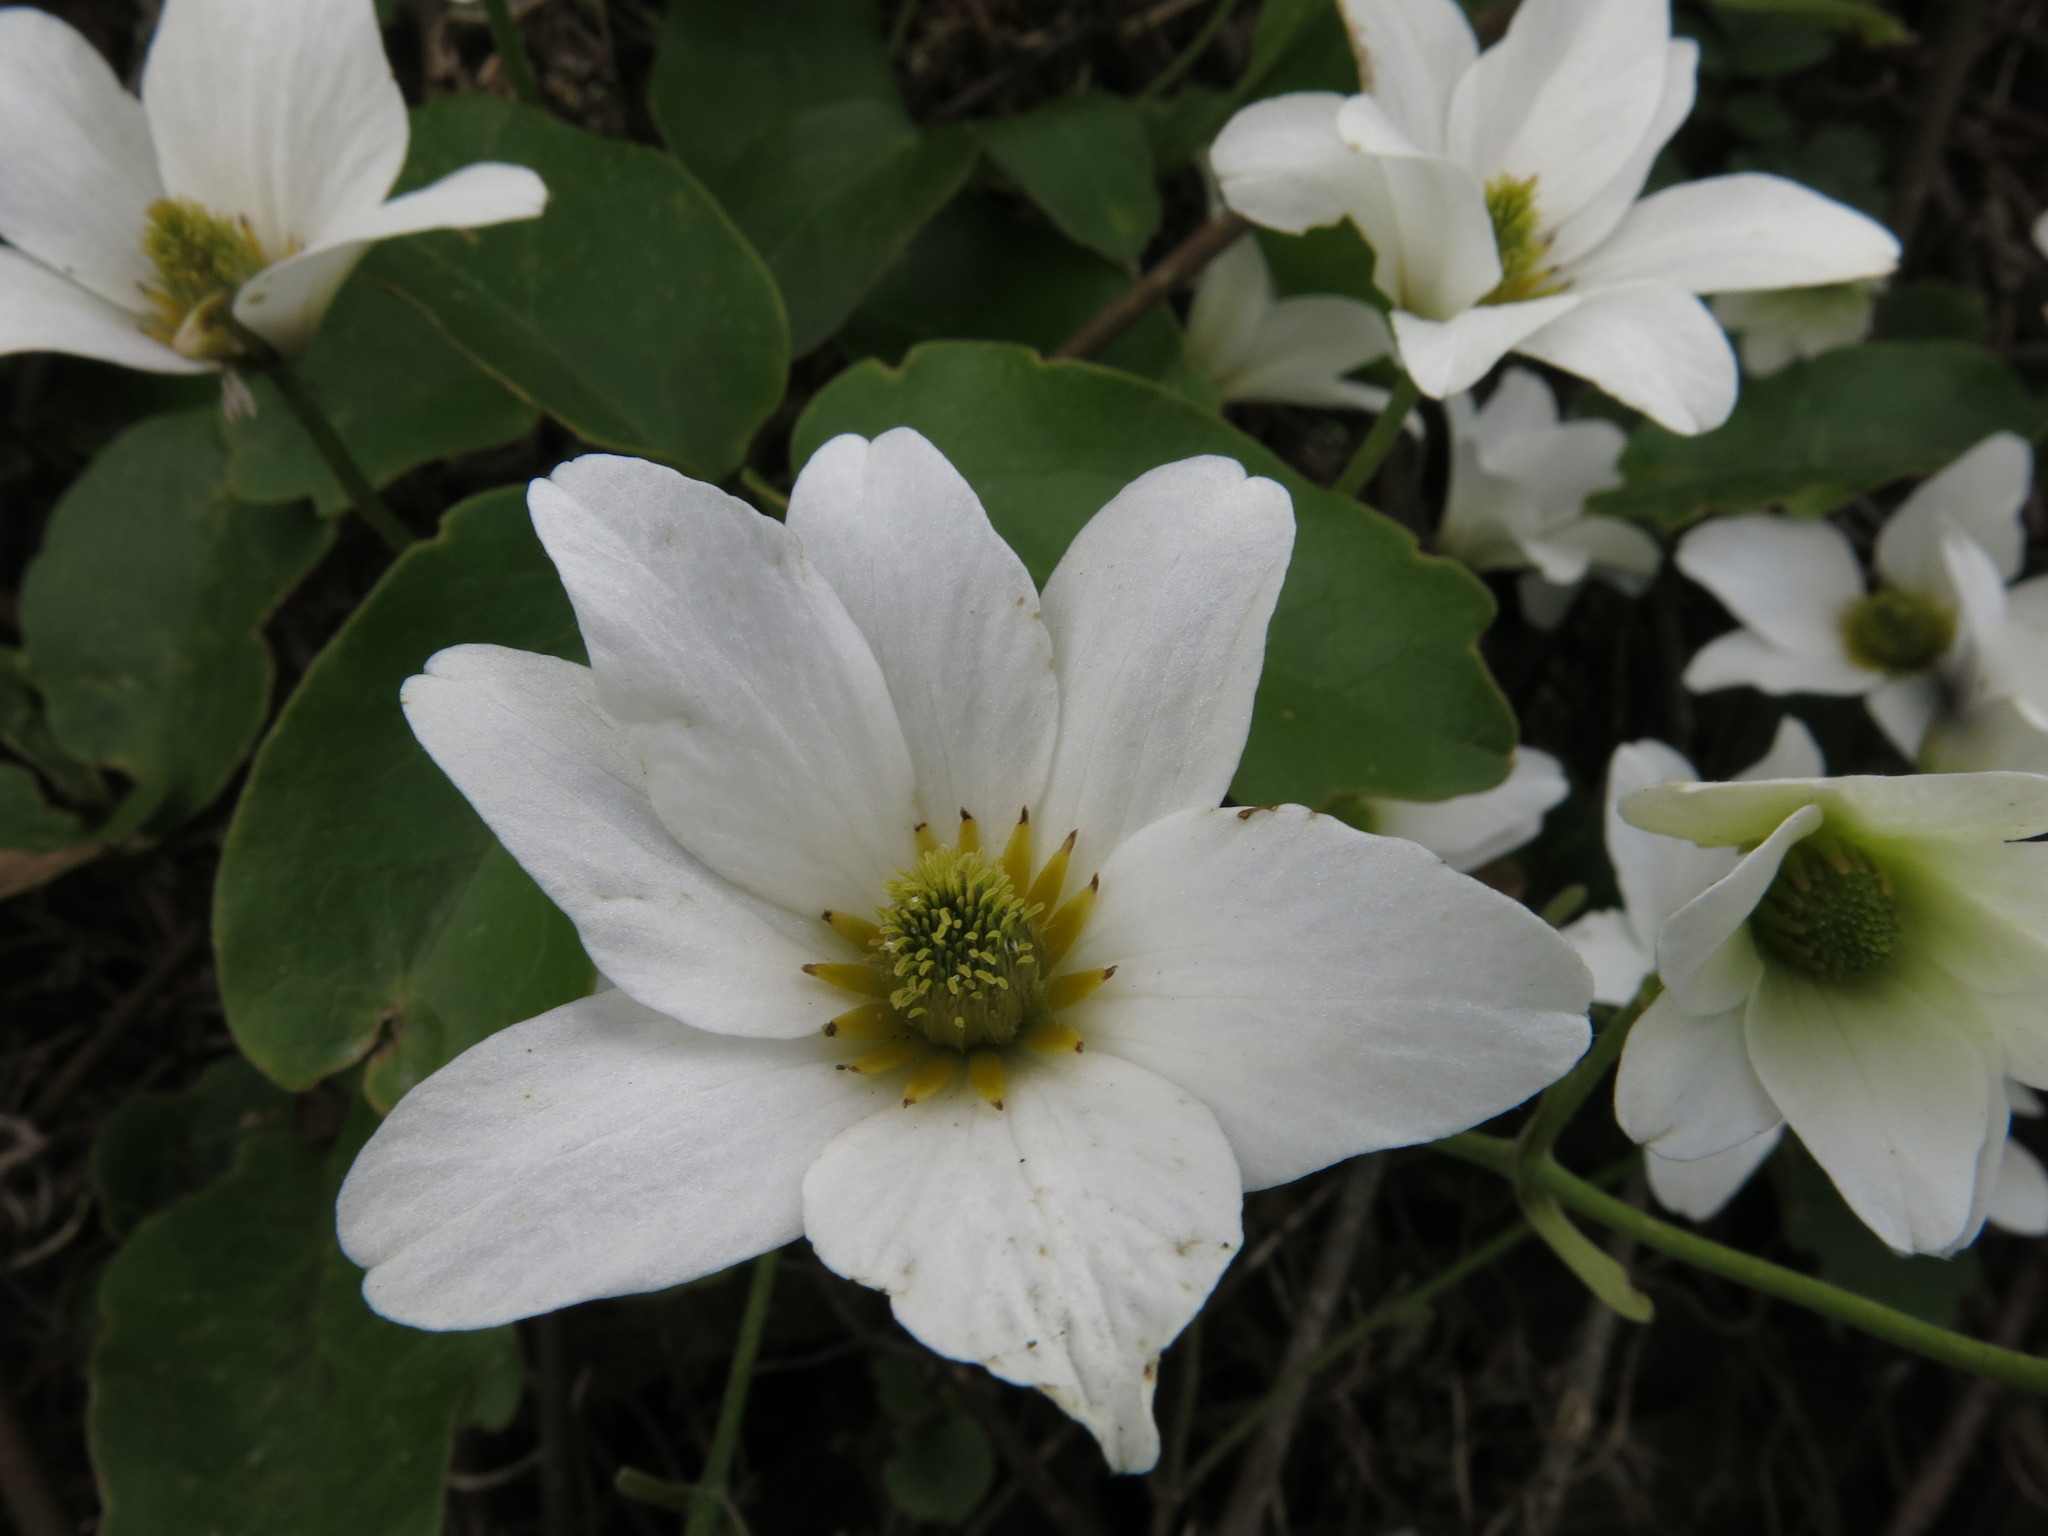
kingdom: Plantae
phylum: Tracheophyta
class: Magnoliopsida
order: Ranunculales
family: Ranunculaceae
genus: Clematis
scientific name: Clematis paniculata
